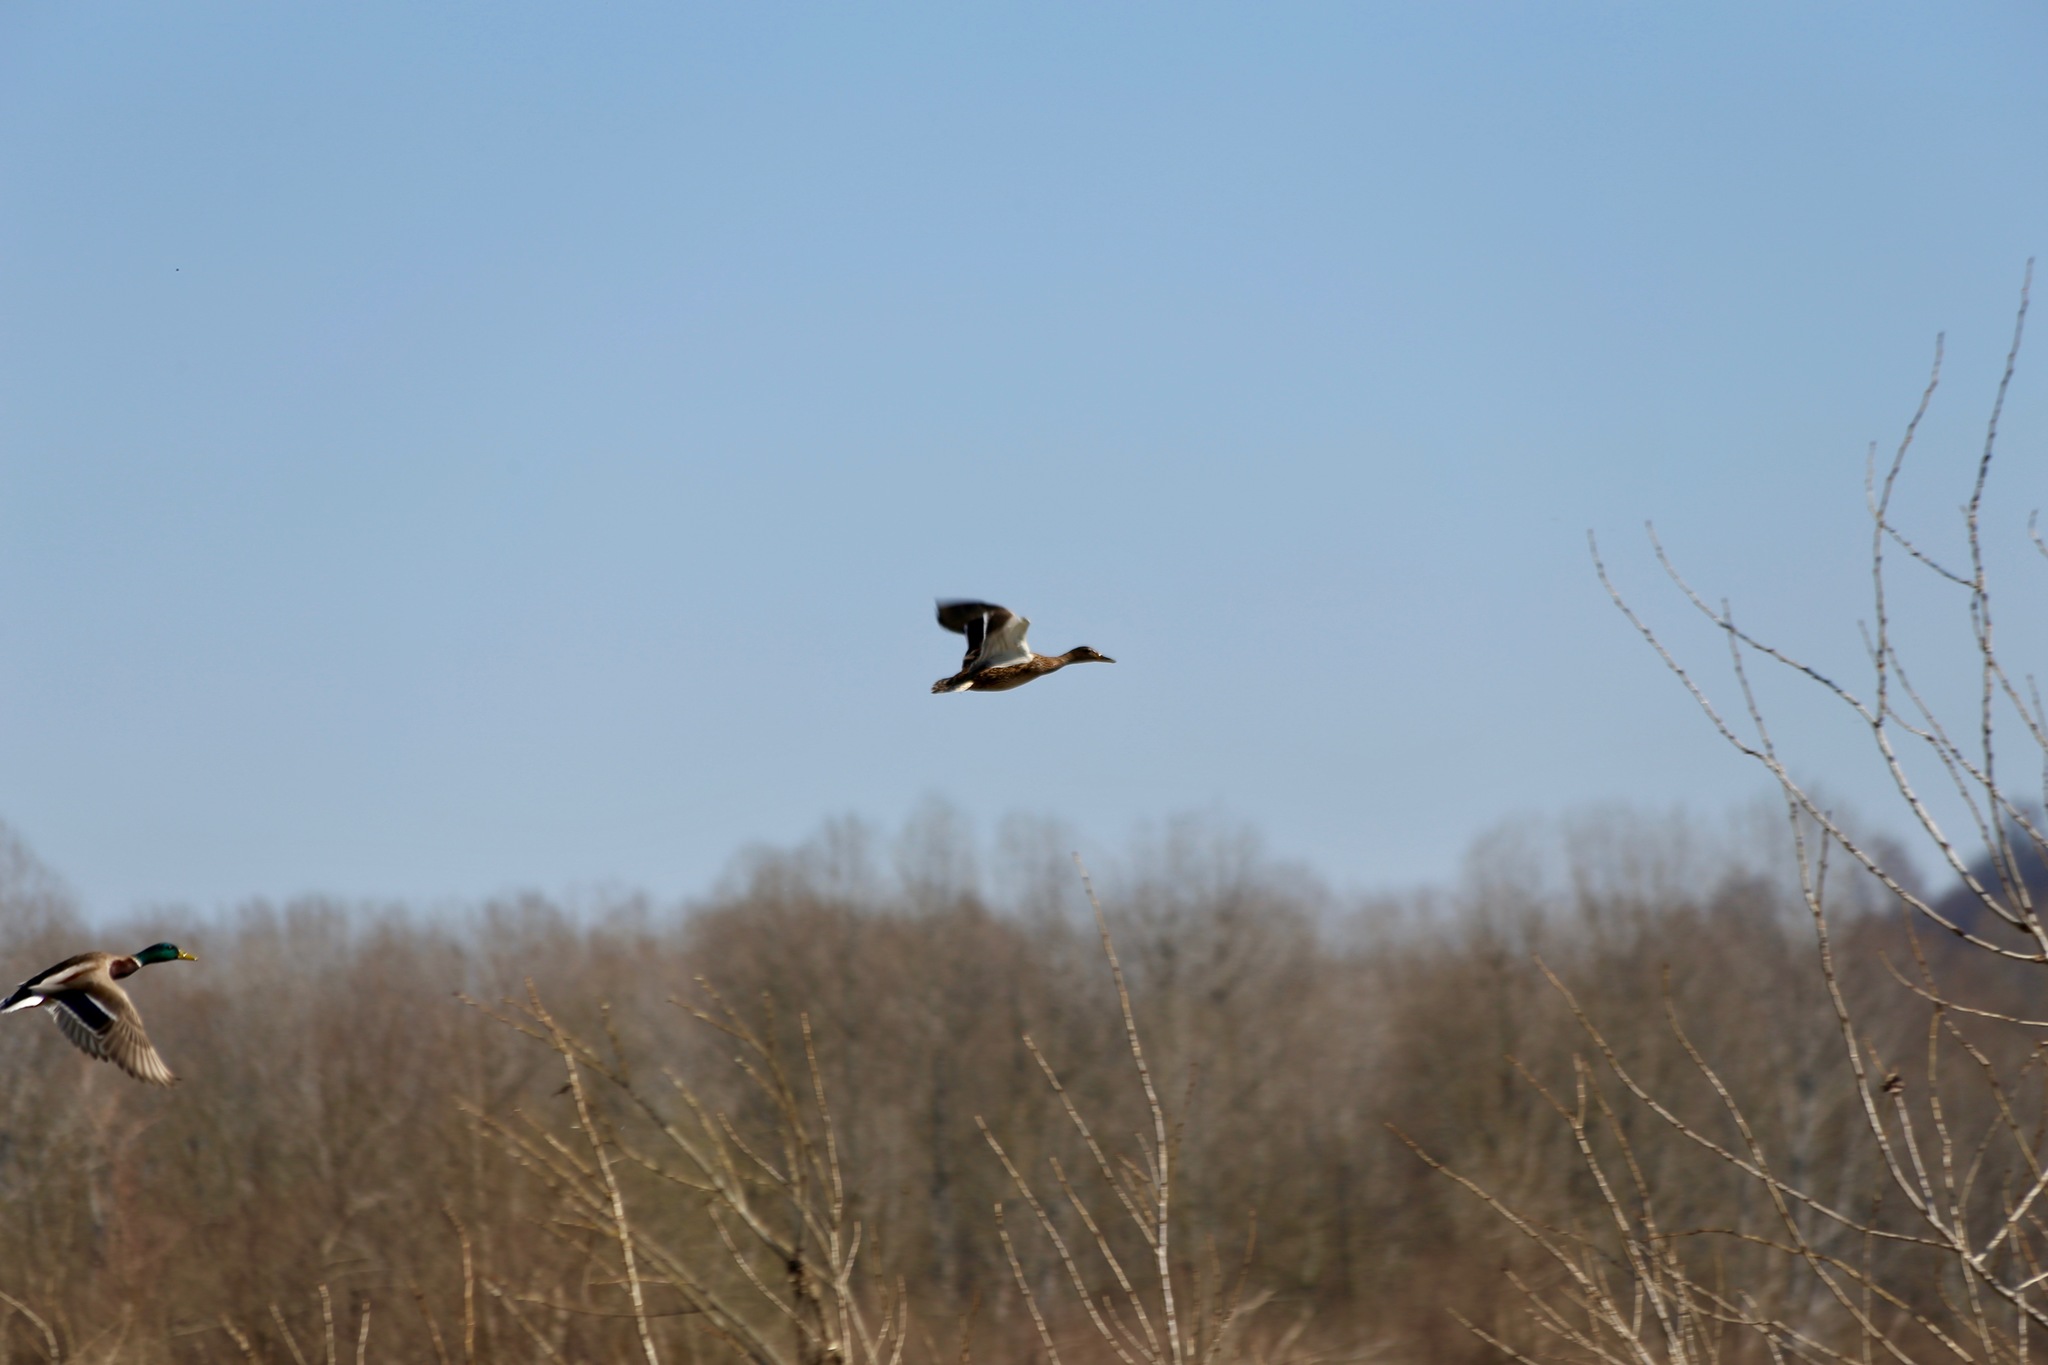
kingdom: Animalia
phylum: Chordata
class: Aves
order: Anseriformes
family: Anatidae
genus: Anas
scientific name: Anas platyrhynchos
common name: Mallard
